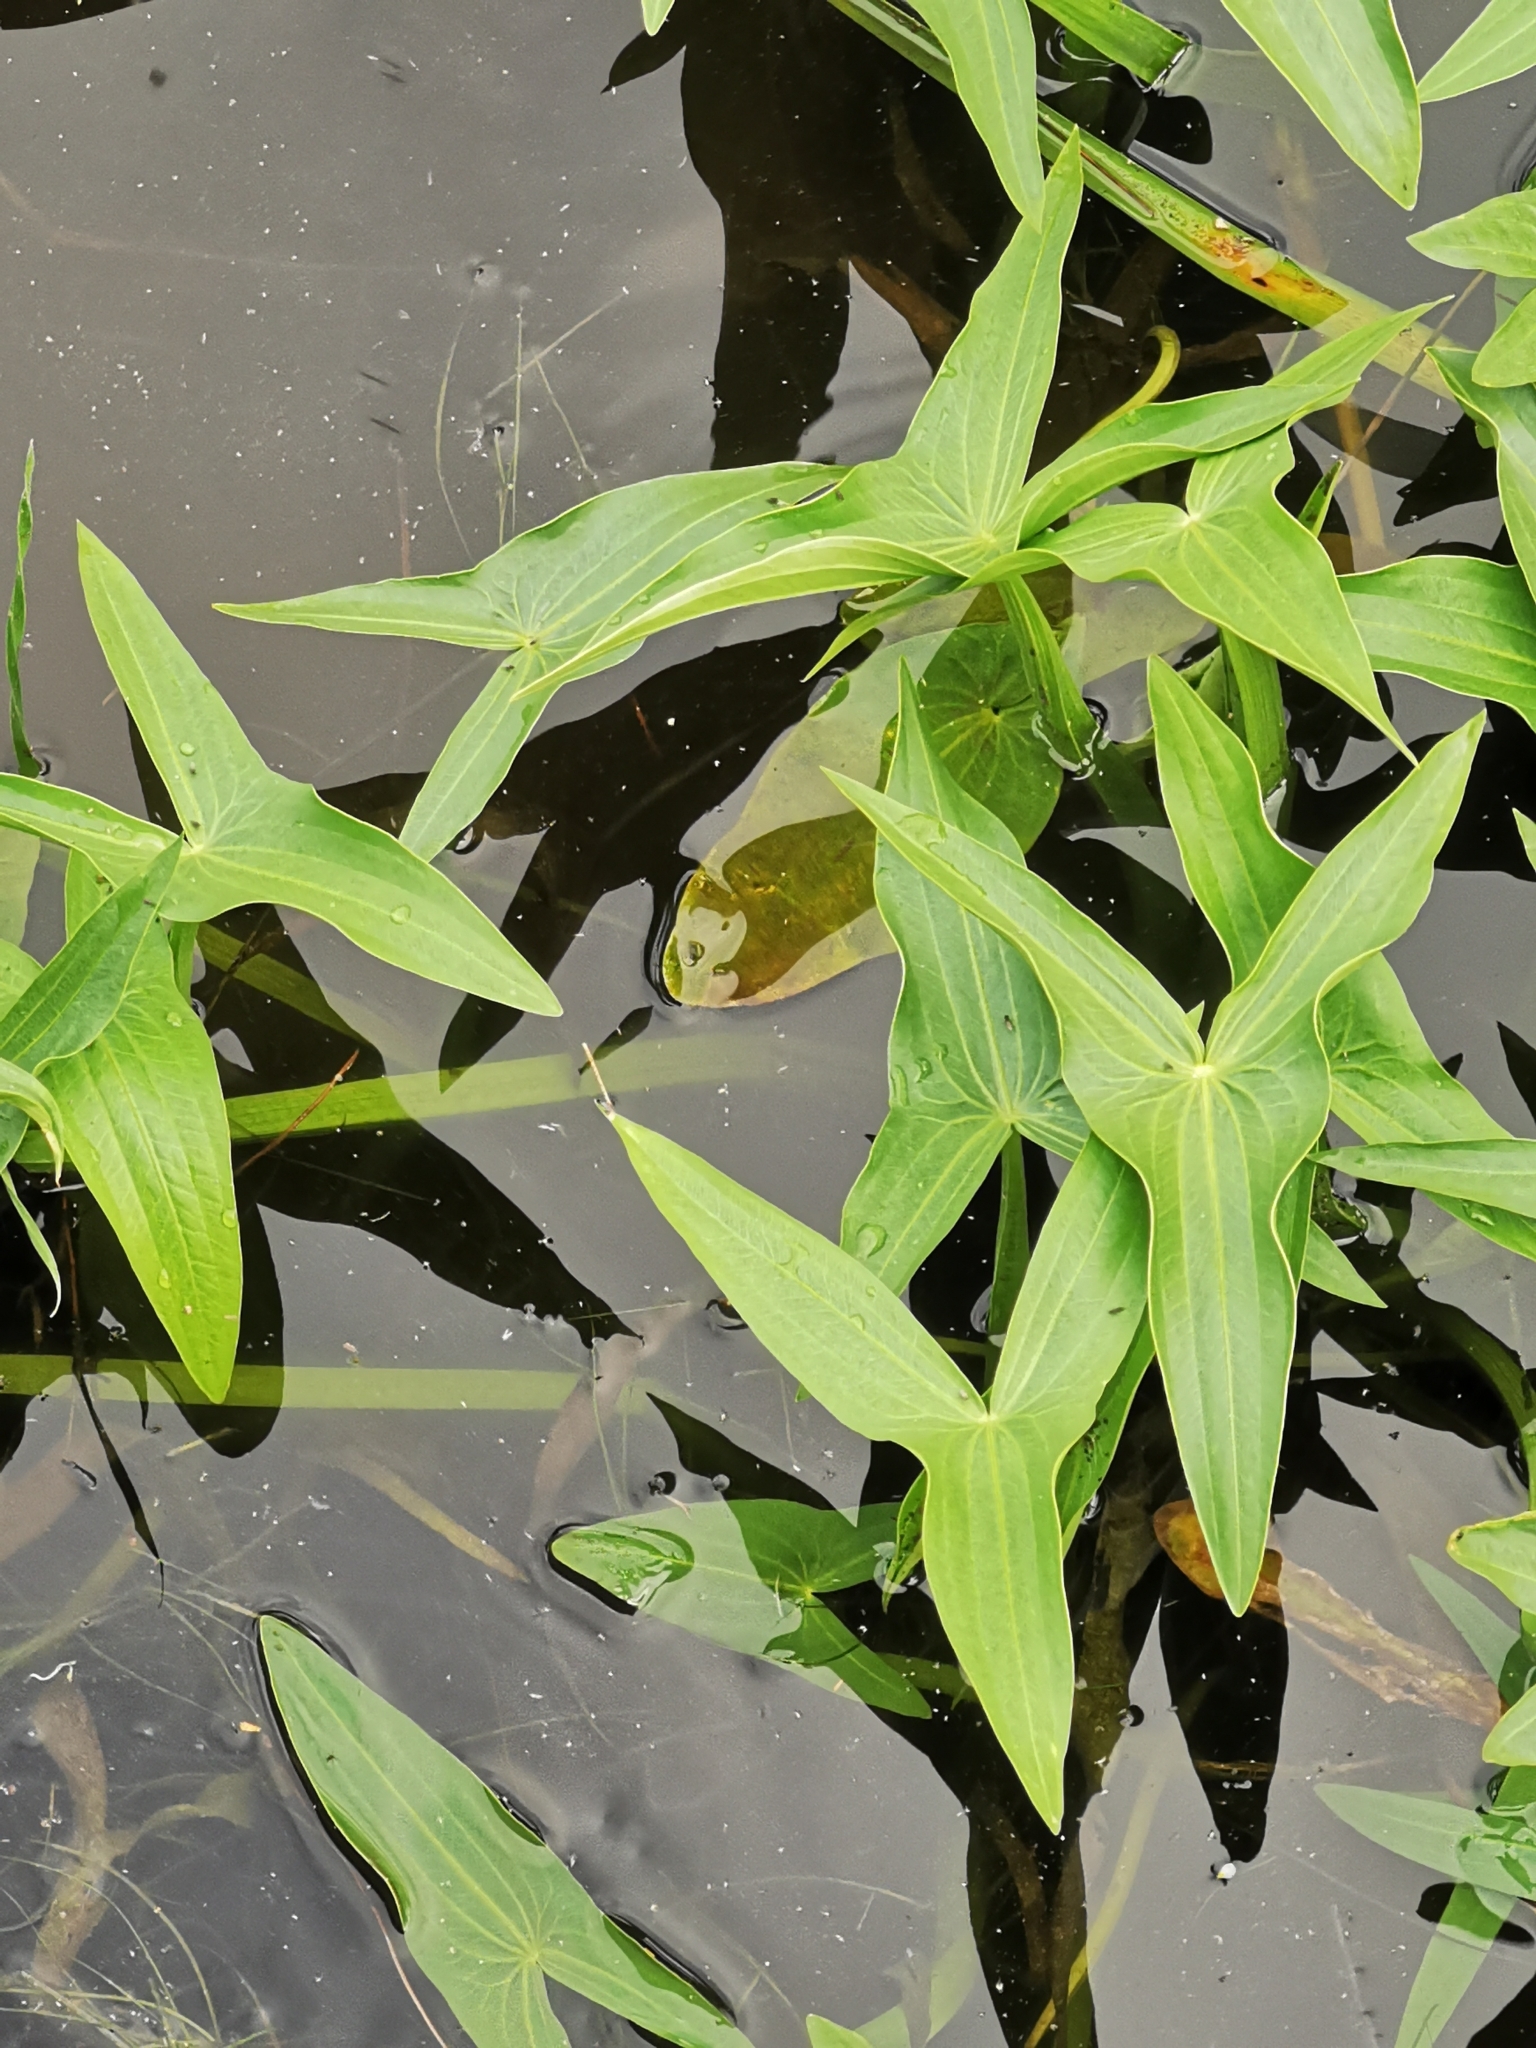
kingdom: Plantae
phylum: Tracheophyta
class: Liliopsida
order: Alismatales
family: Alismataceae
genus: Sagittaria
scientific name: Sagittaria sagittifolia
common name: Arrowhead
